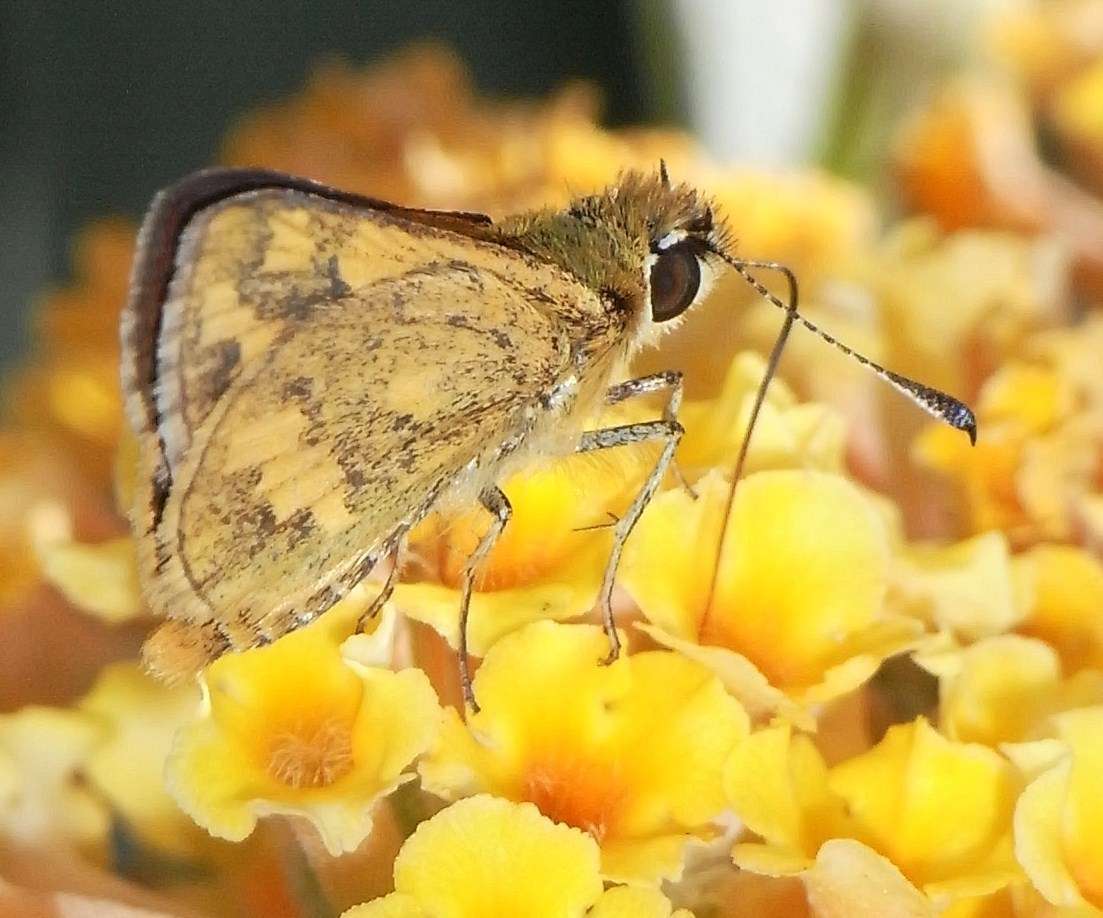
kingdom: Animalia
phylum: Arthropoda
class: Insecta
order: Lepidoptera
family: Hesperiidae
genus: Ocybadistes
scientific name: Ocybadistes walkeri
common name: Yellow-banded dart
